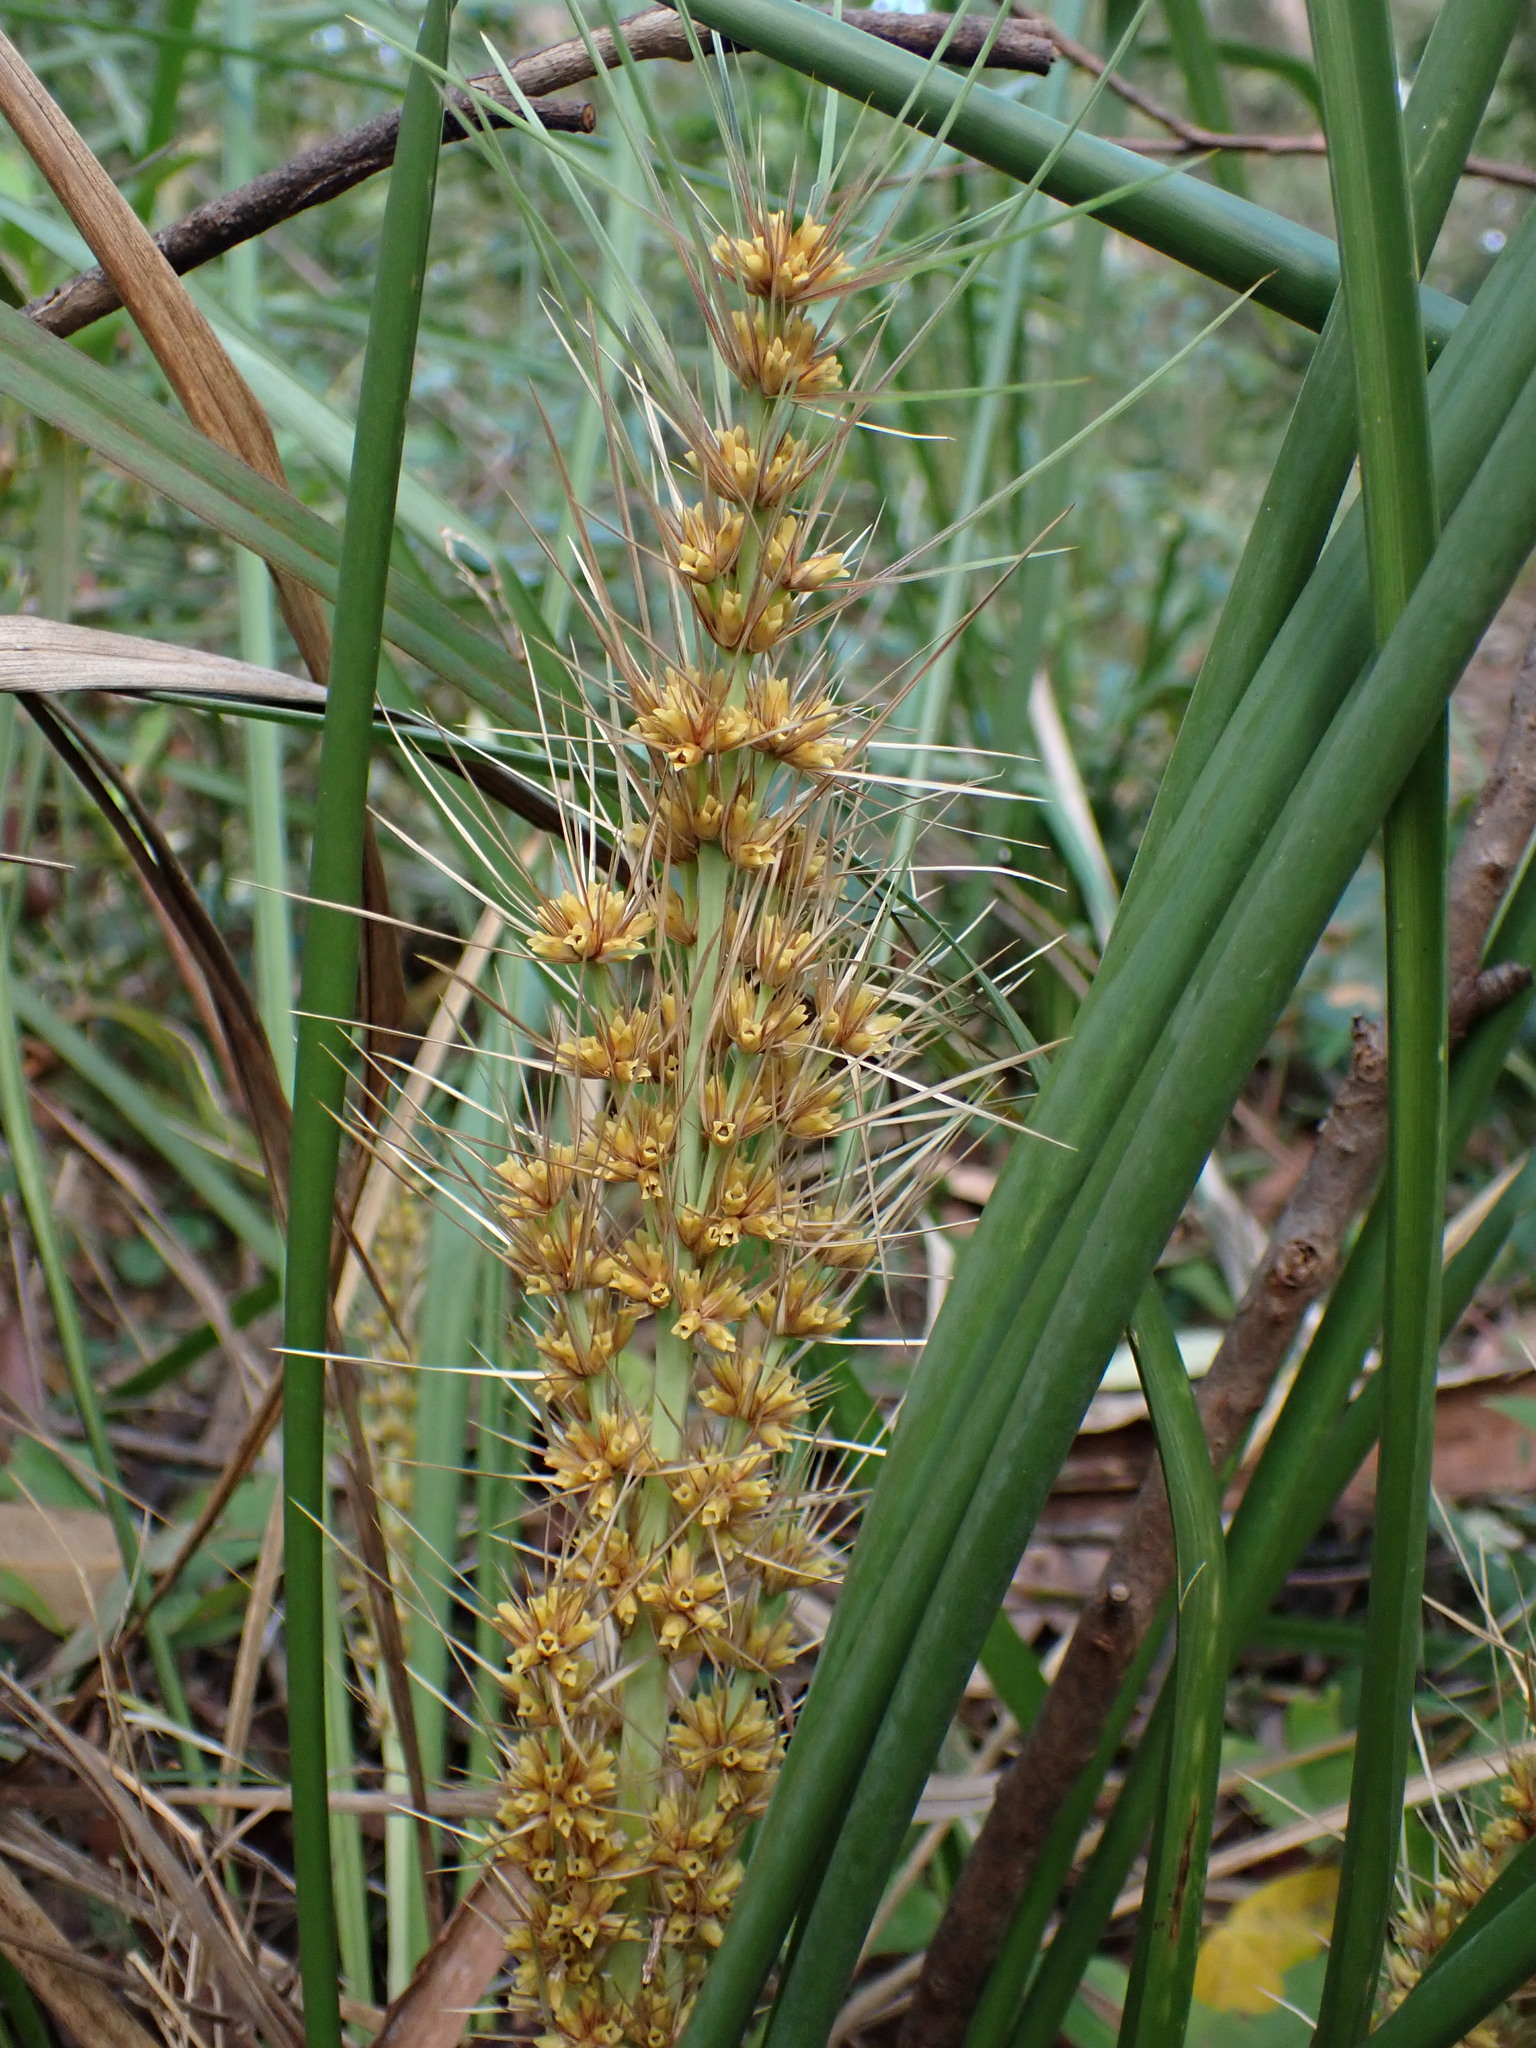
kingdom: Plantae
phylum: Tracheophyta
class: Liliopsida
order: Asparagales
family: Asparagaceae
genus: Lomandra
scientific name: Lomandra longifolia
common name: Longleaf mat-rush
